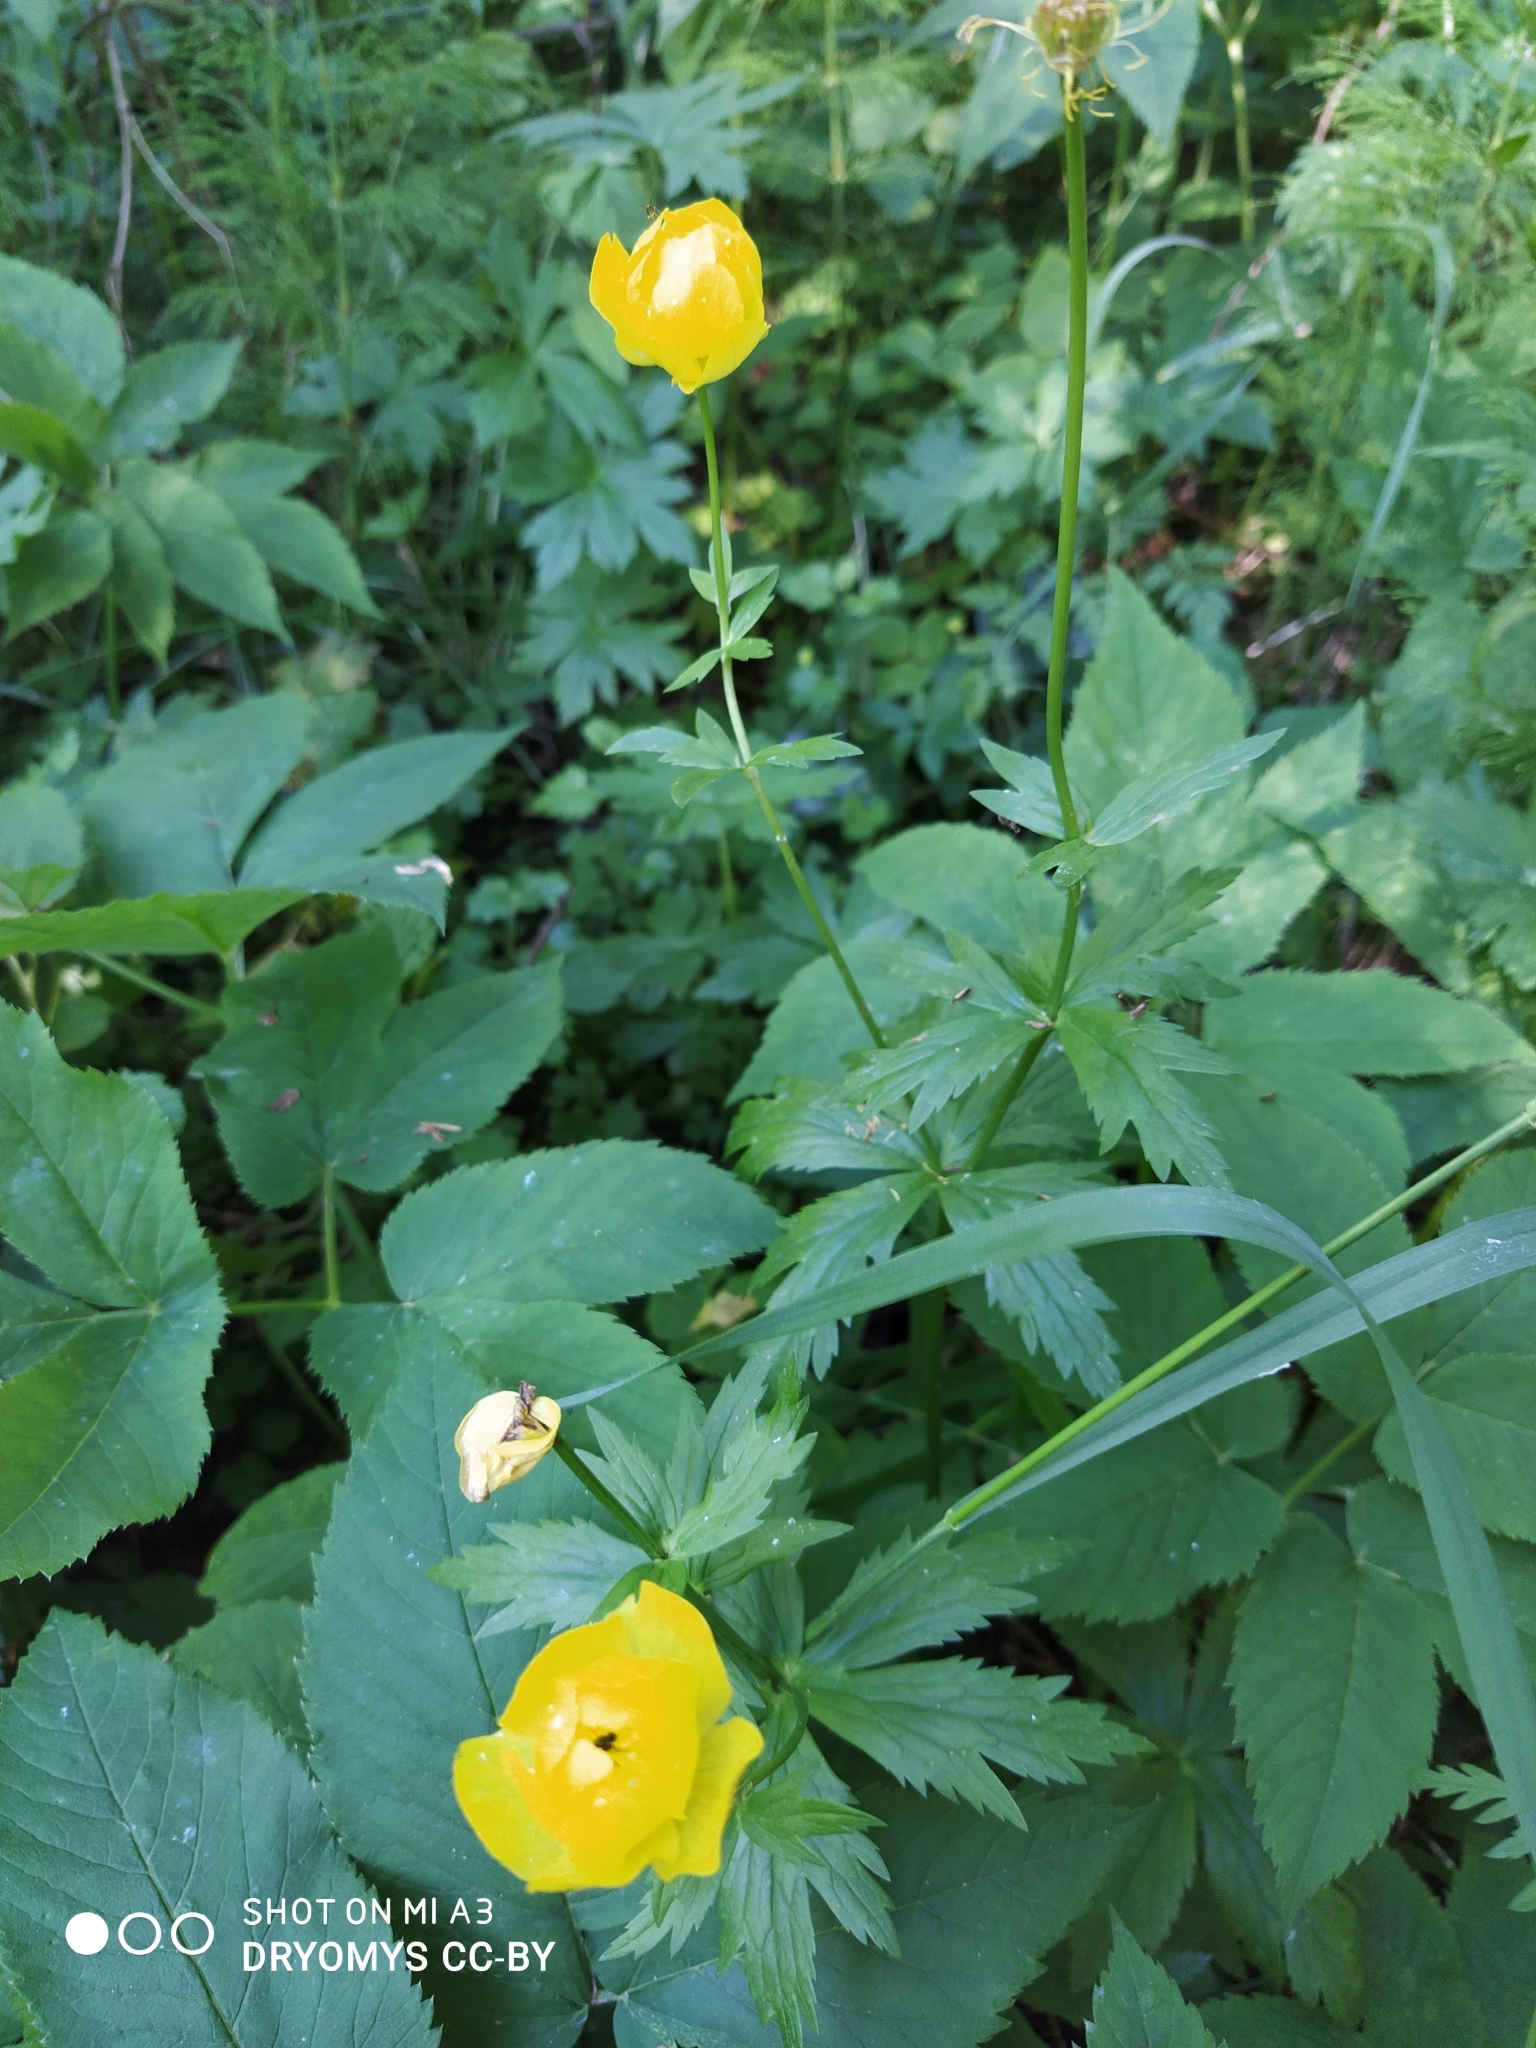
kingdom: Plantae
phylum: Tracheophyta
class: Magnoliopsida
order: Ranunculales
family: Ranunculaceae
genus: Trollius
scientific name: Trollius europaeus
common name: European globeflower
